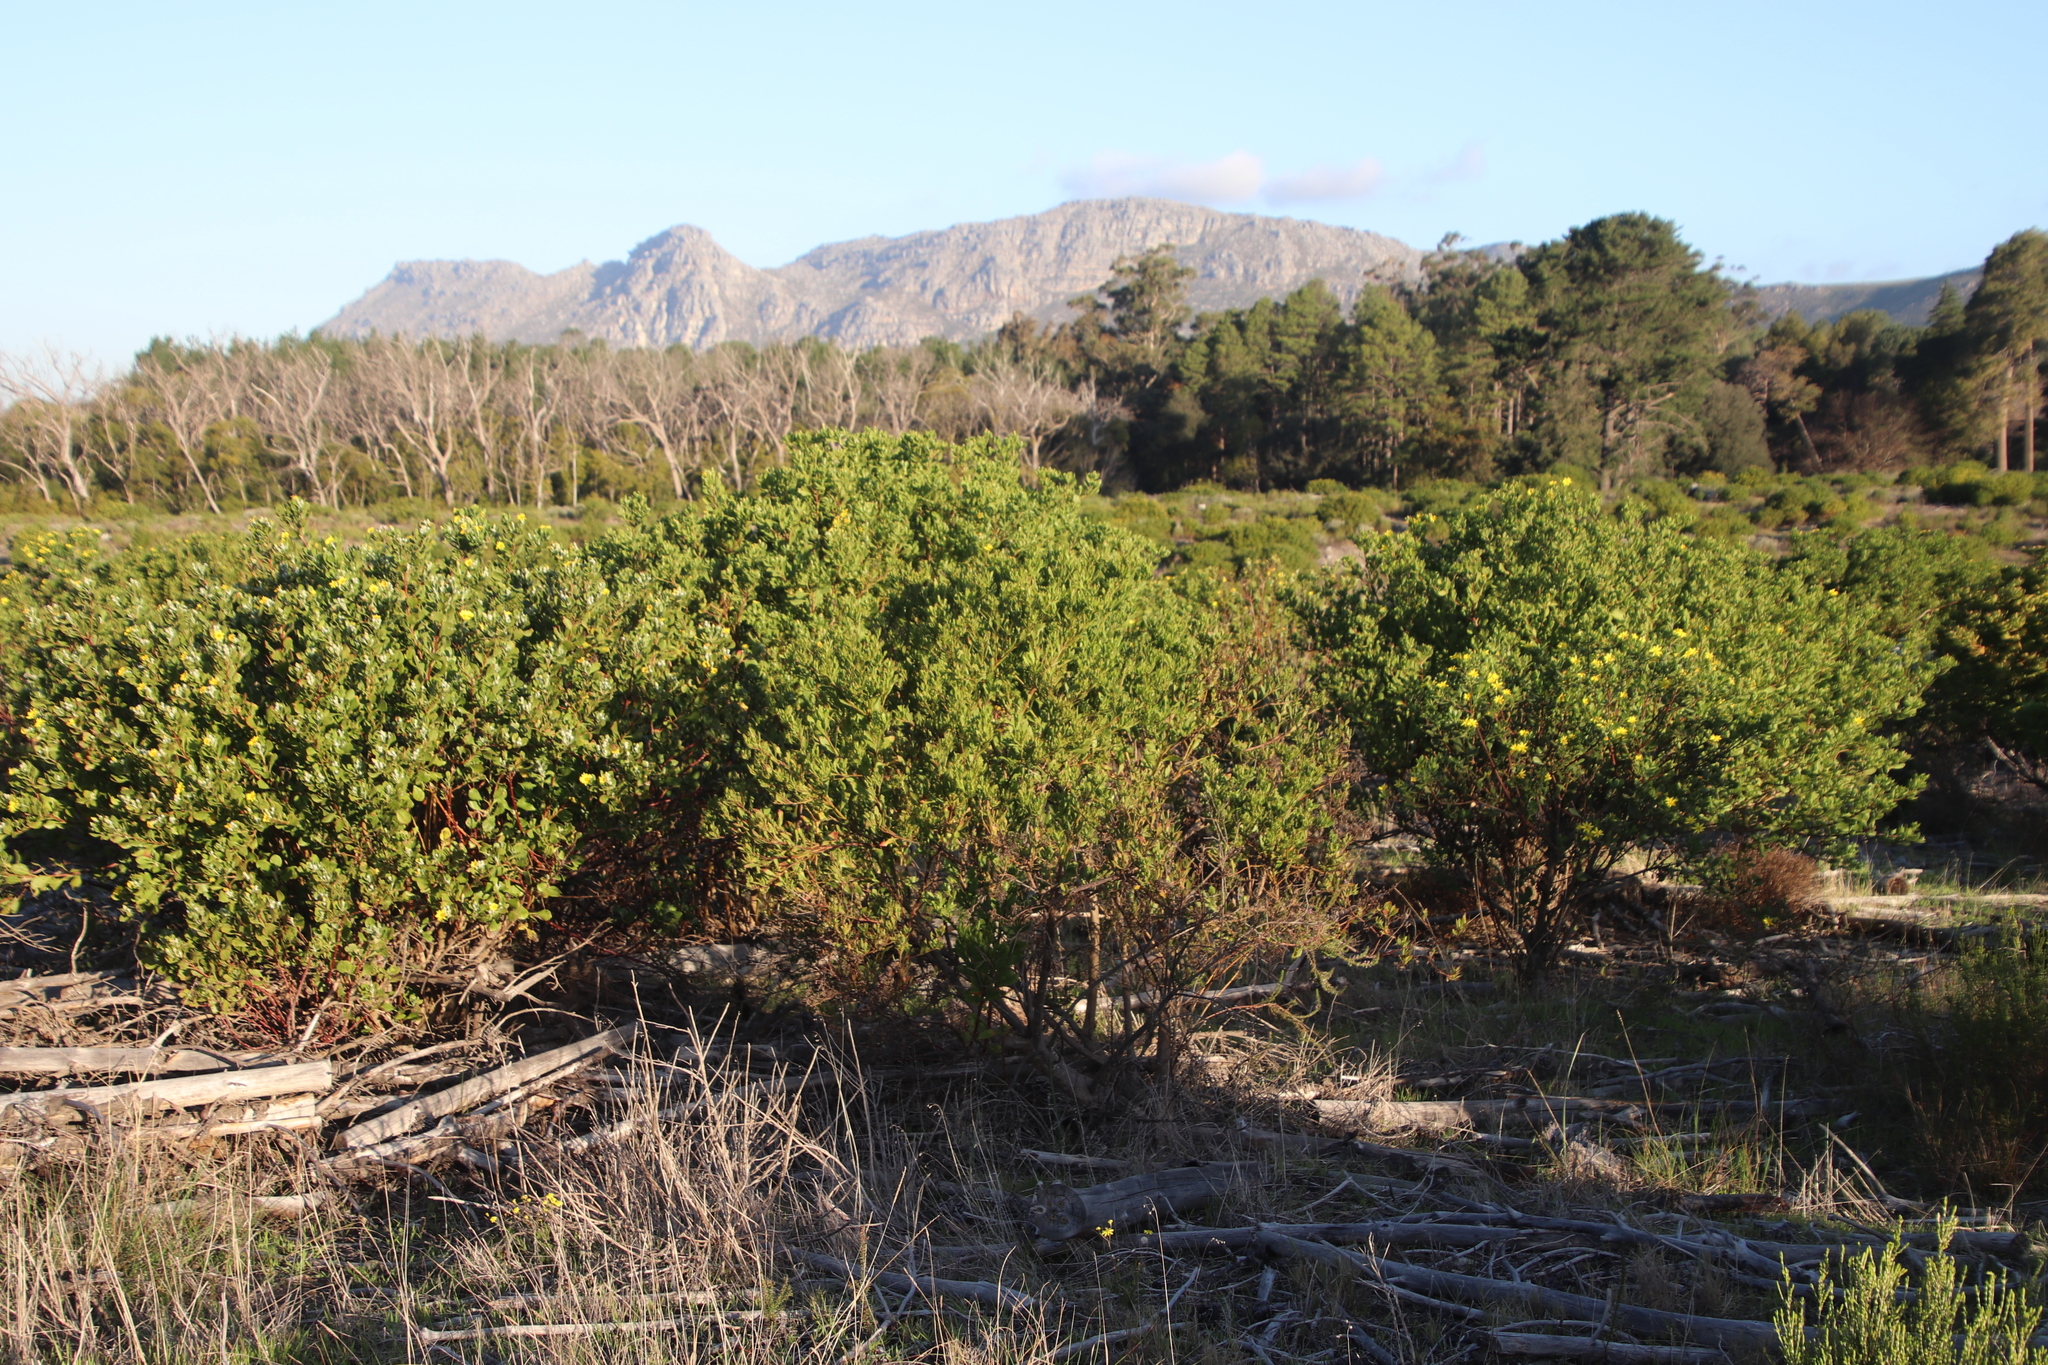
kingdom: Plantae
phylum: Tracheophyta
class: Magnoliopsida
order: Asterales
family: Asteraceae
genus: Osteospermum
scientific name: Osteospermum moniliferum
